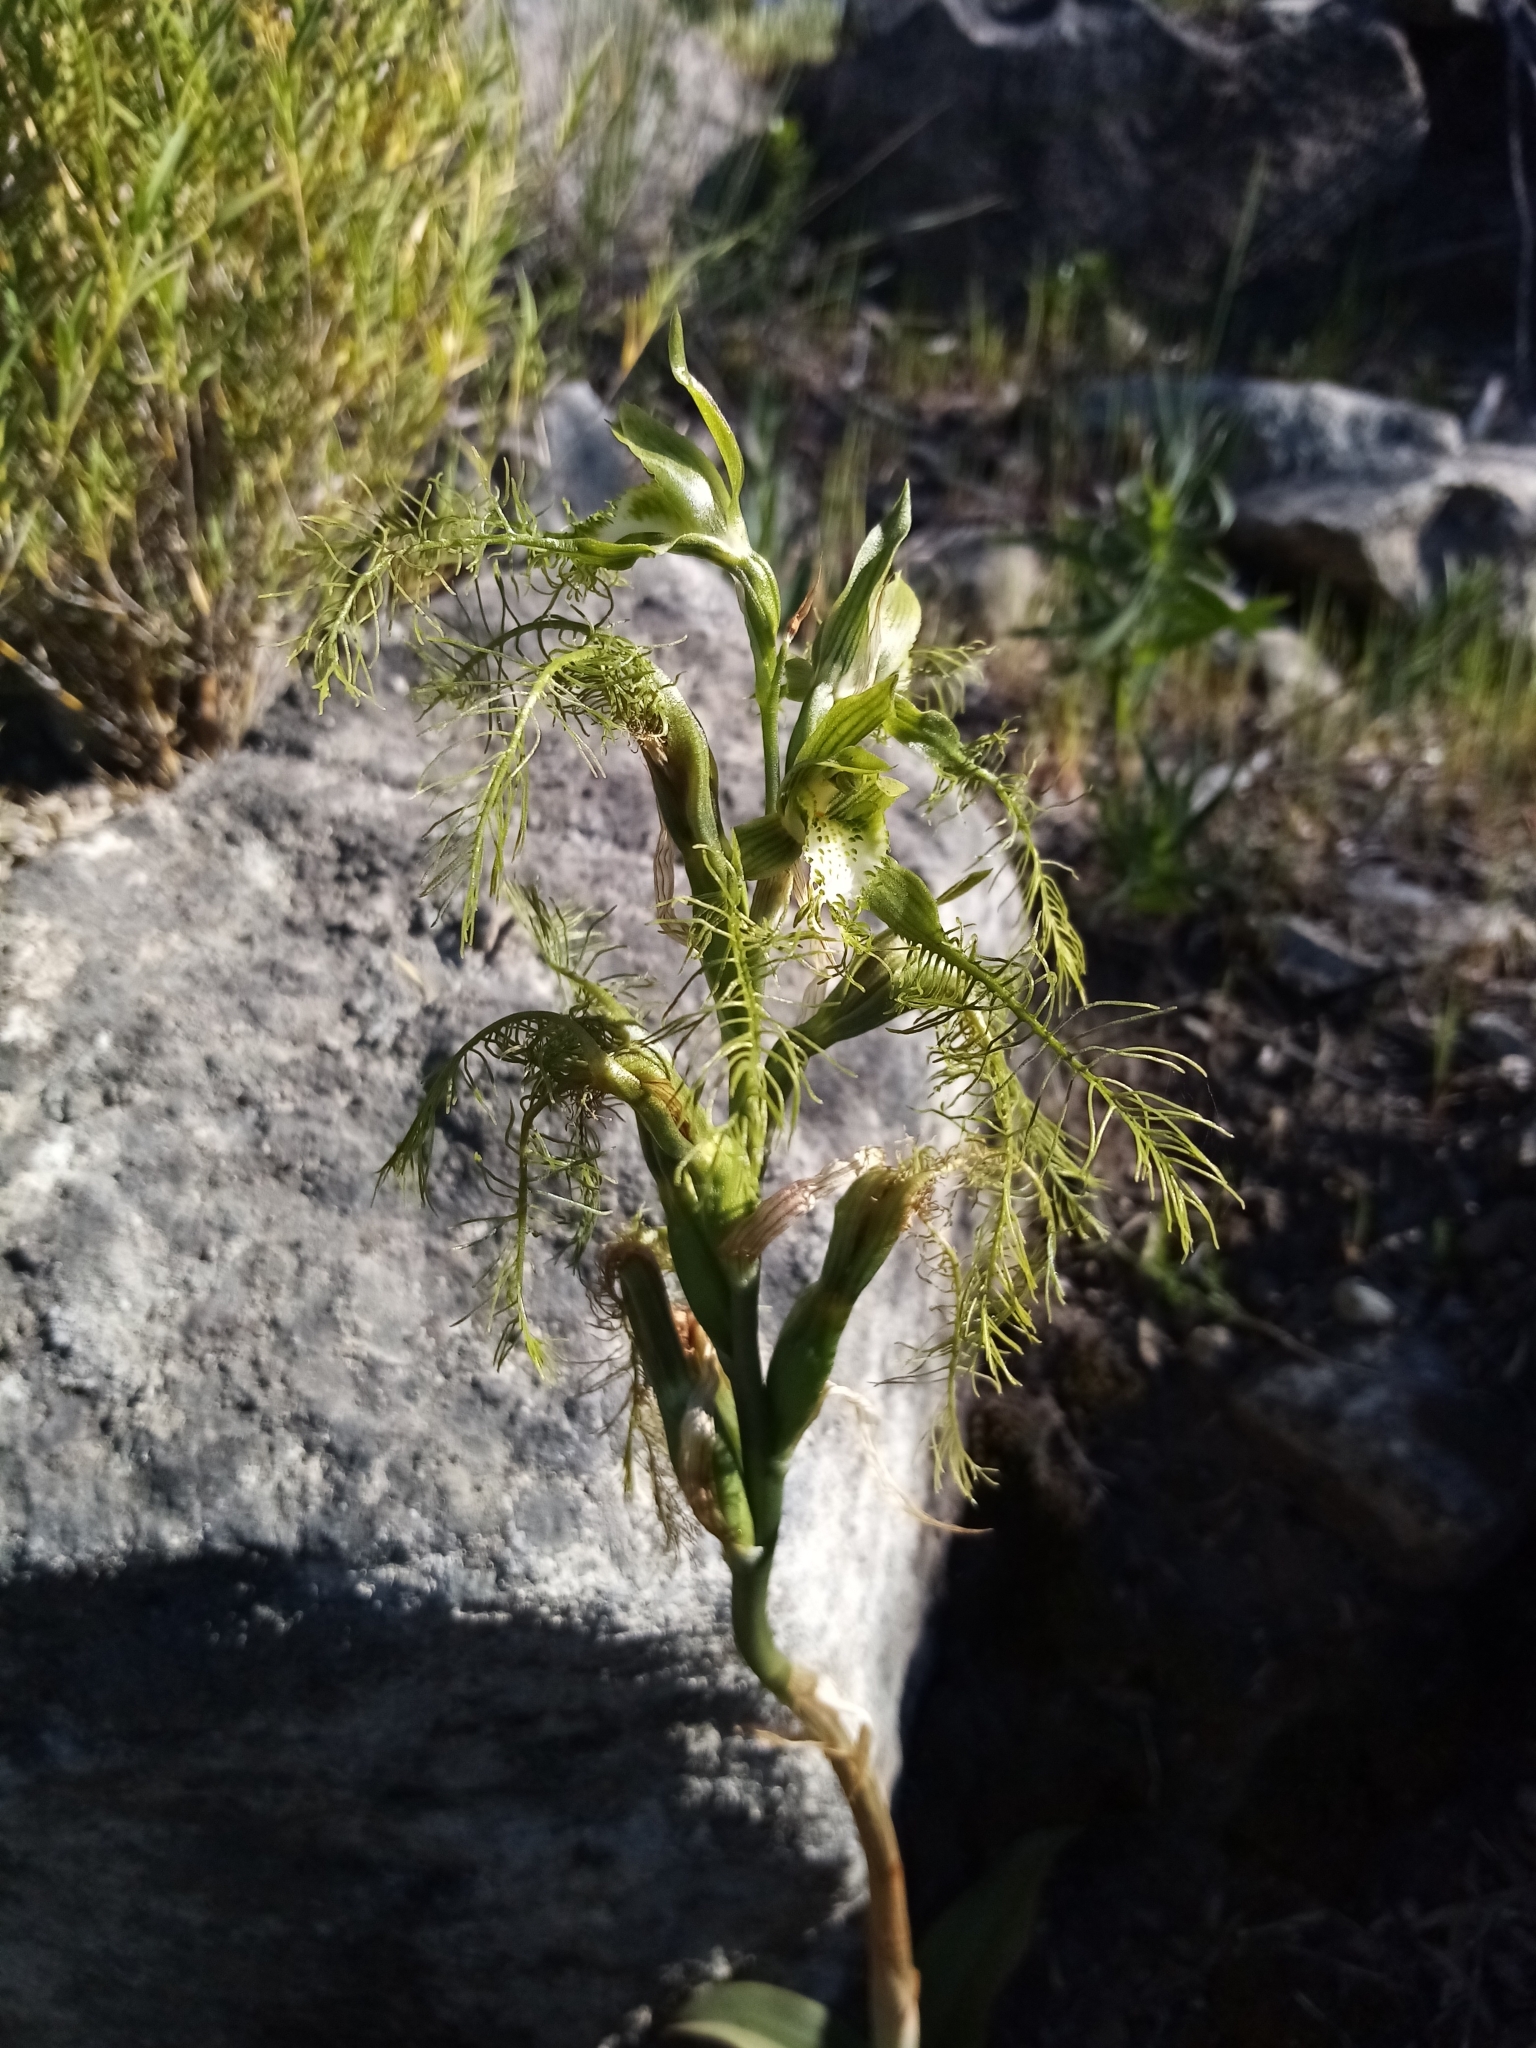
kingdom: Plantae
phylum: Tracheophyta
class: Liliopsida
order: Asparagales
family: Orchidaceae
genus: Bipinnula
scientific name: Bipinnula plumosa
